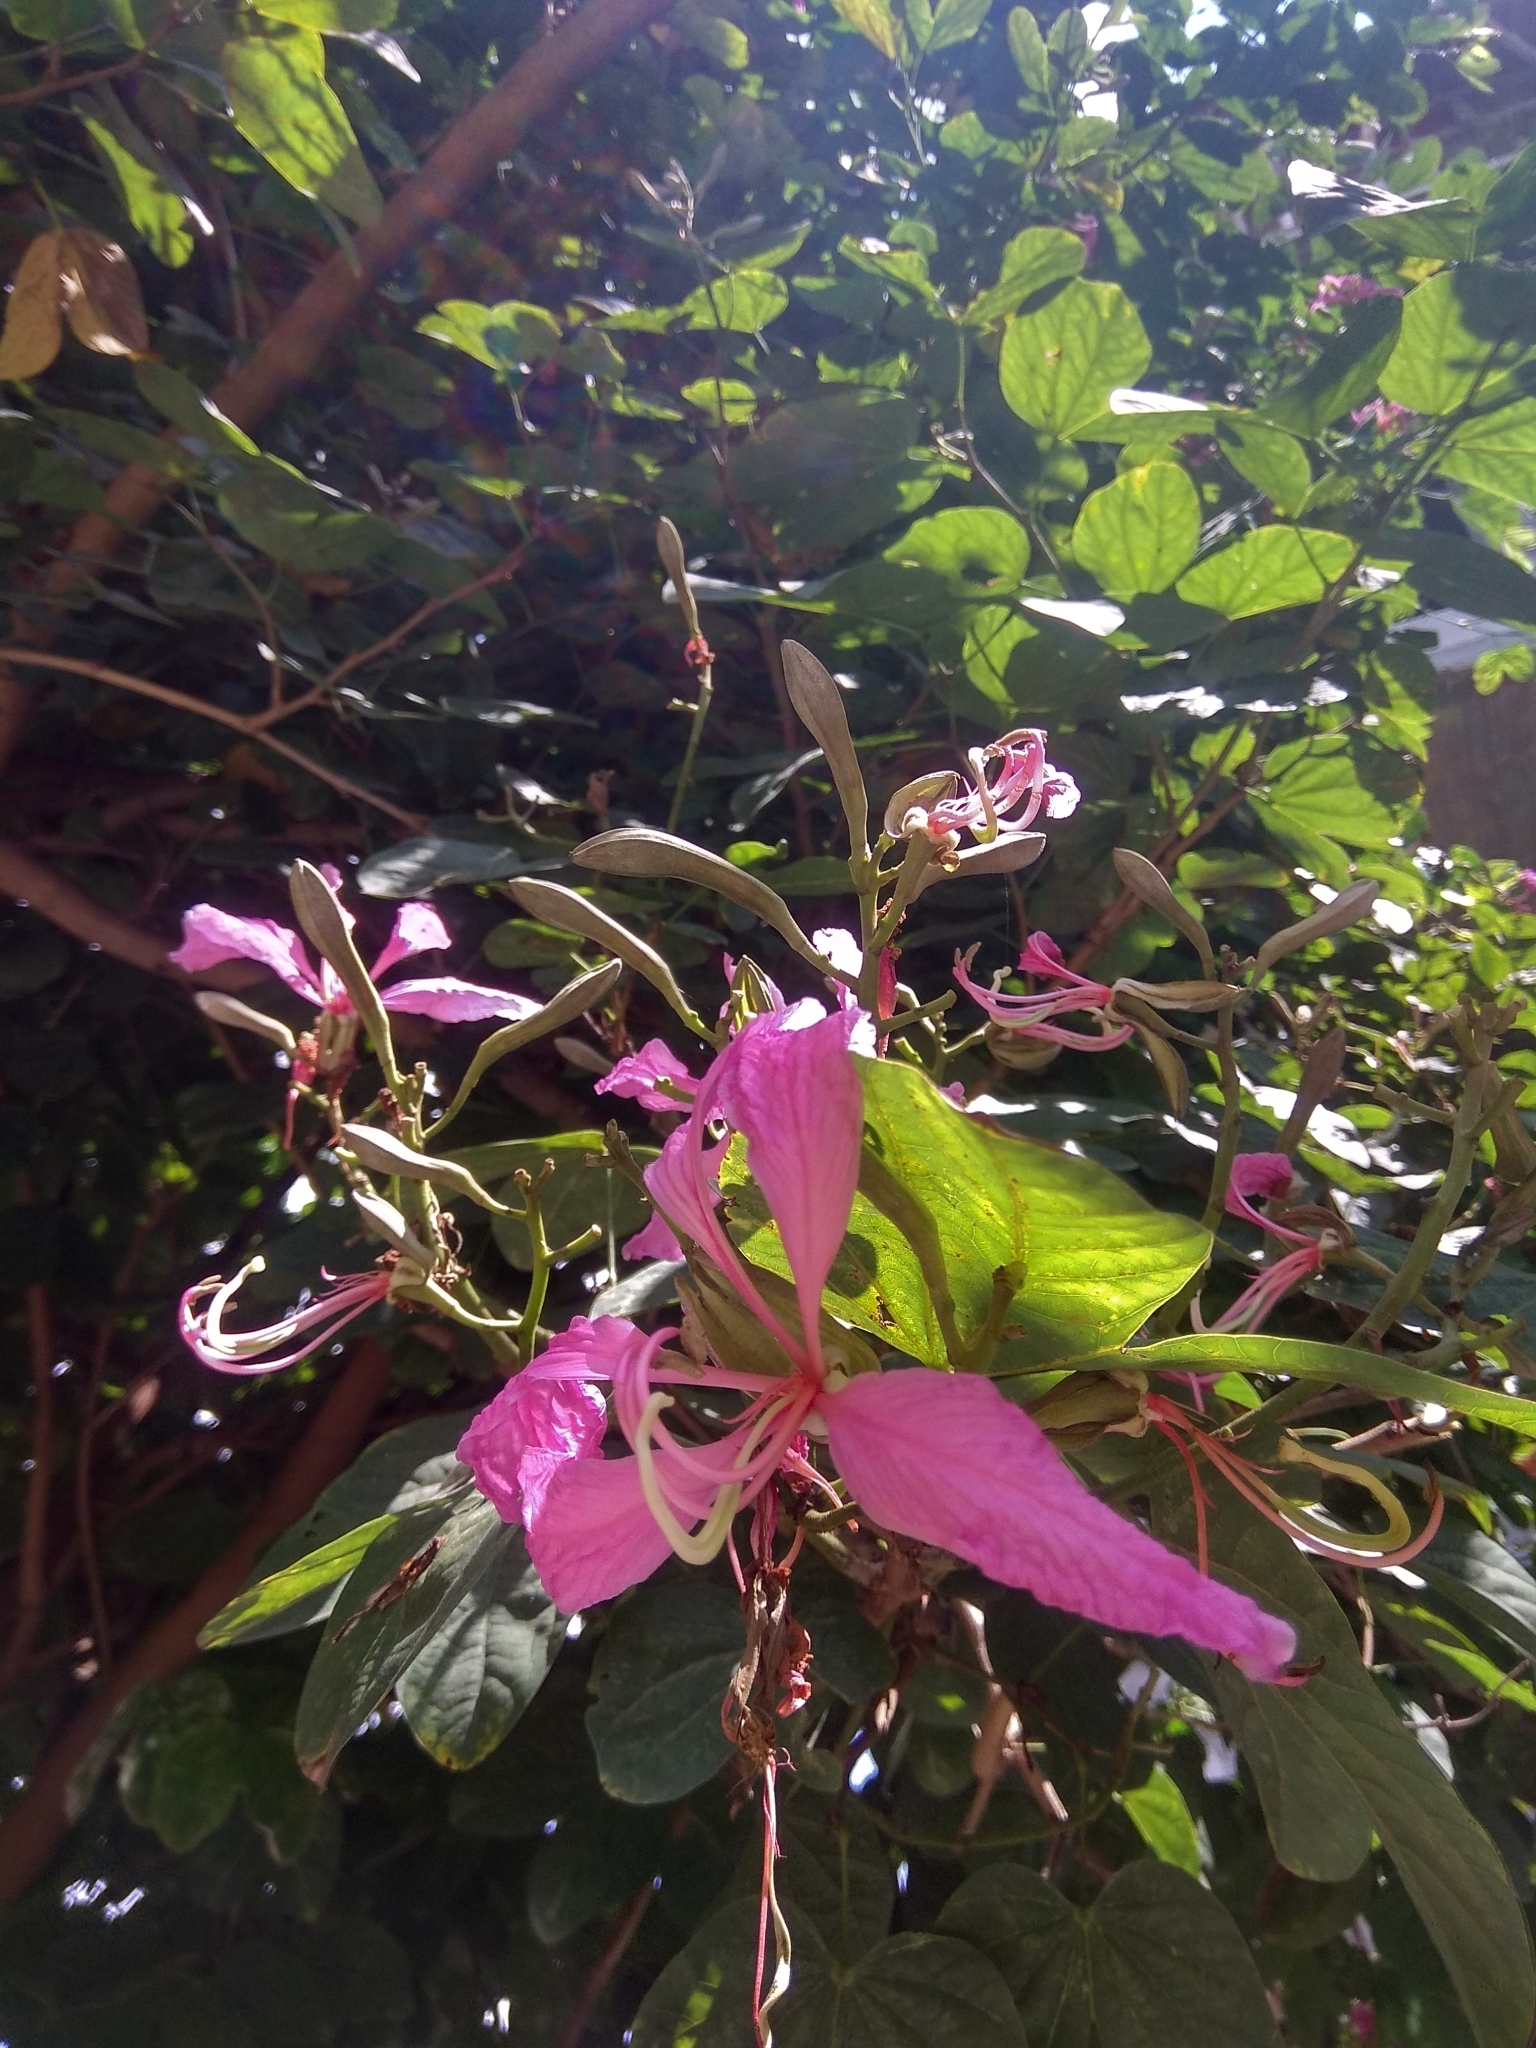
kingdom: Plantae
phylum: Tracheophyta
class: Magnoliopsida
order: Fabales
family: Fabaceae
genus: Bauhinia
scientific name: Bauhinia purpurea
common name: Butterfly-tree
